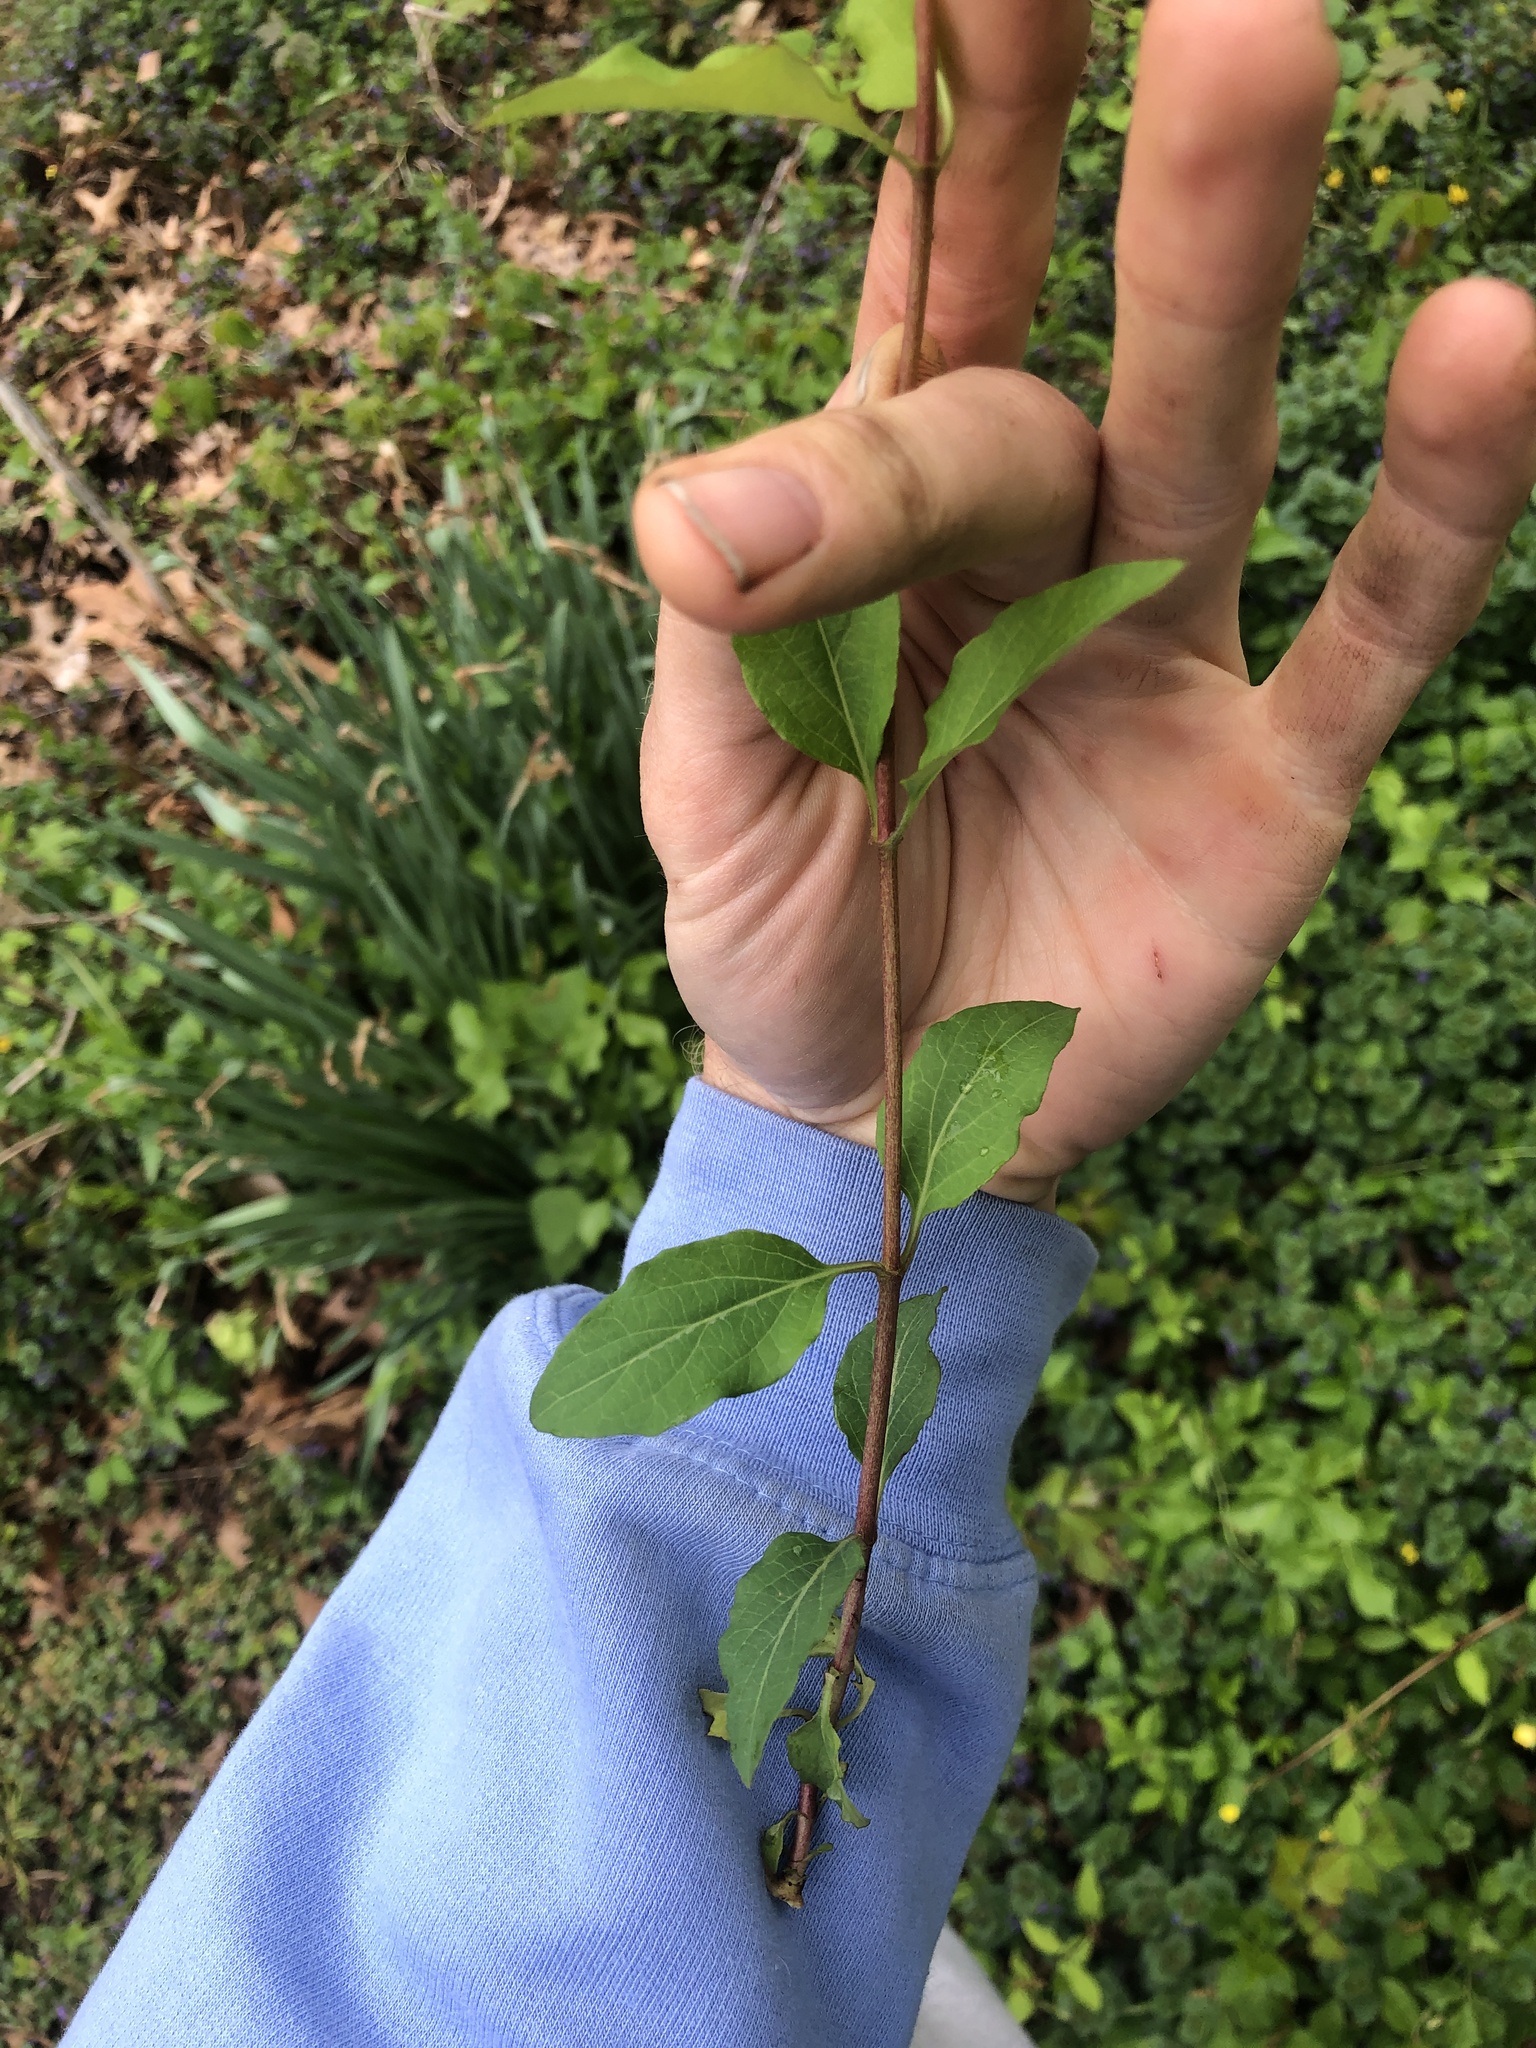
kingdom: Plantae
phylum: Tracheophyta
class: Magnoliopsida
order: Dipsacales
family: Caprifoliaceae
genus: Lonicera
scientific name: Lonicera japonica
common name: Japanese honeysuckle
